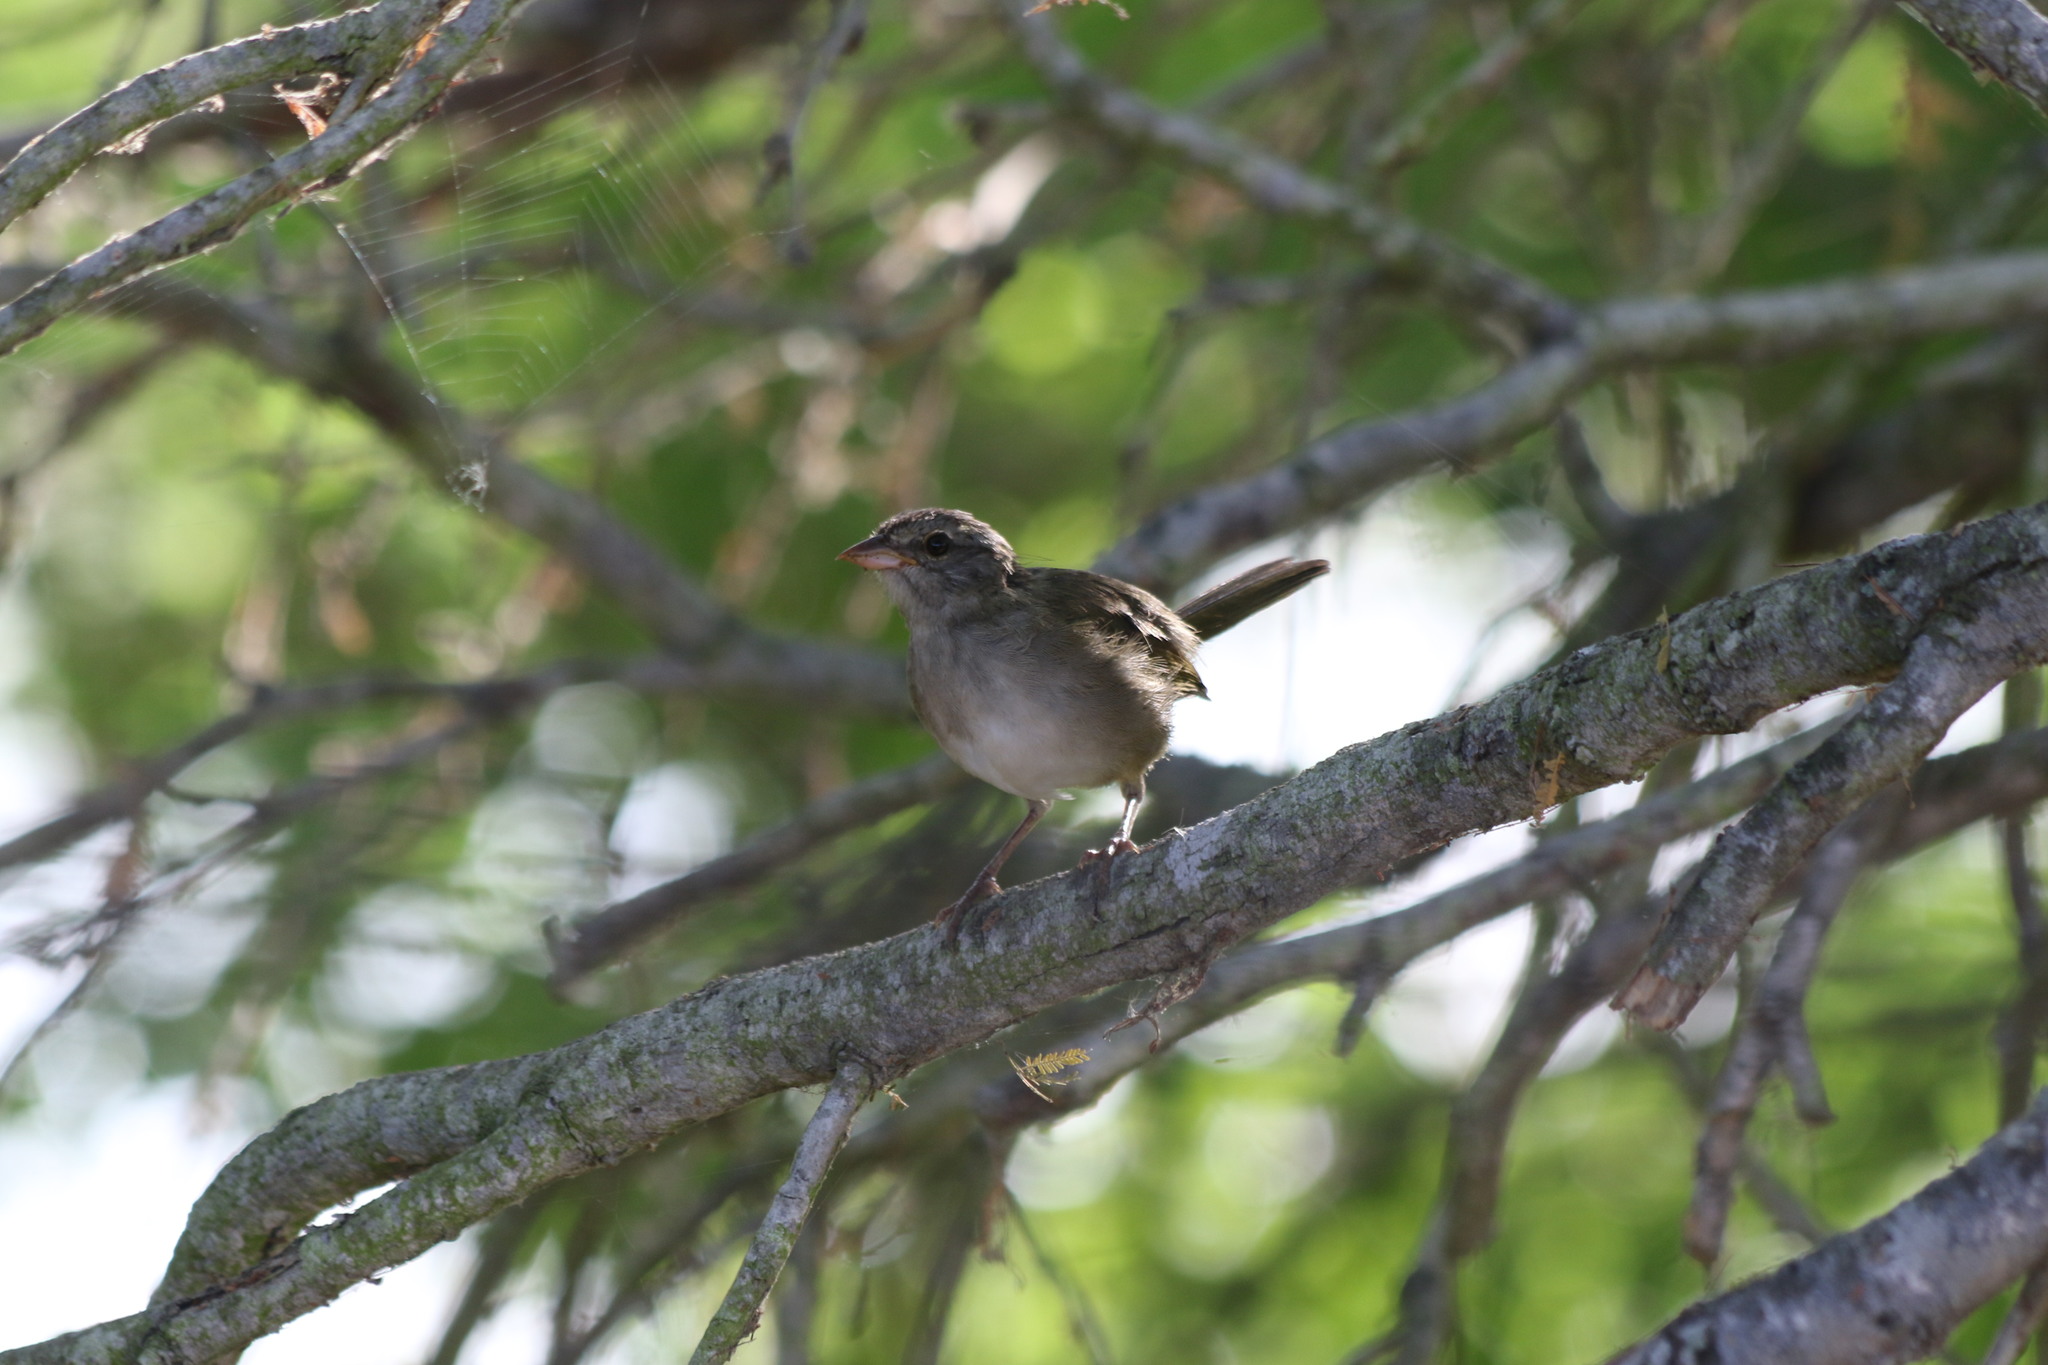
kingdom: Animalia
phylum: Chordata
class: Aves
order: Passeriformes
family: Passerellidae
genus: Arremonops
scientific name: Arremonops rufivirgatus
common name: Olive sparrow
